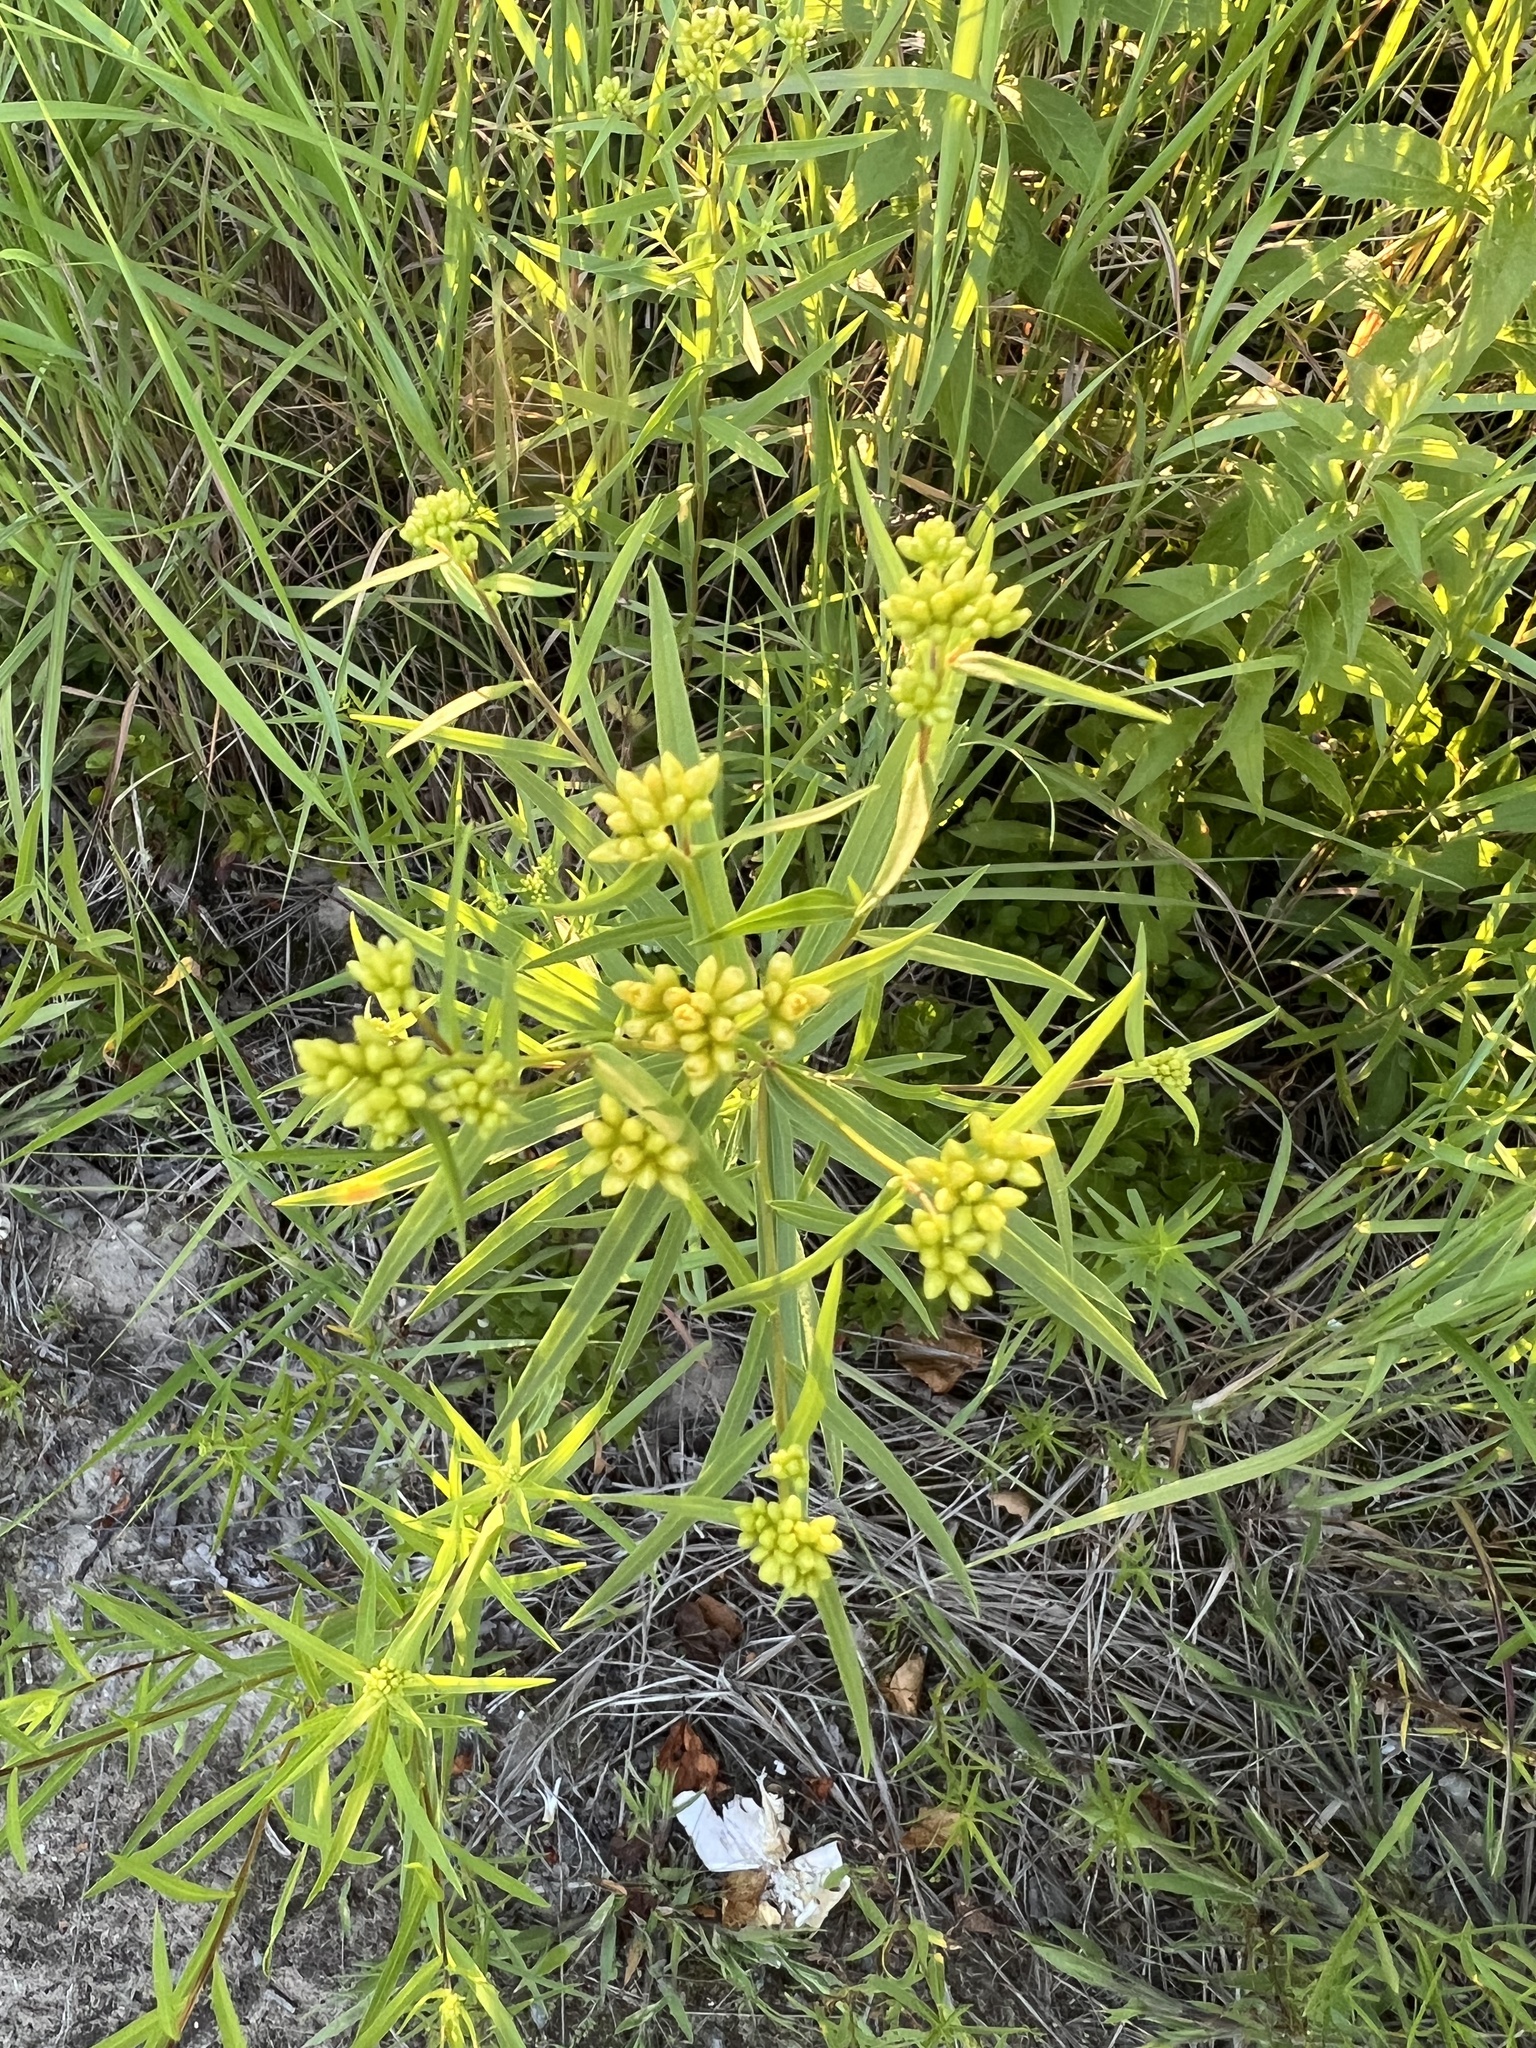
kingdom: Plantae
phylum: Tracheophyta
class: Magnoliopsida
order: Asterales
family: Asteraceae
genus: Euthamia
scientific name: Euthamia graminifolia
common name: Common goldentop
